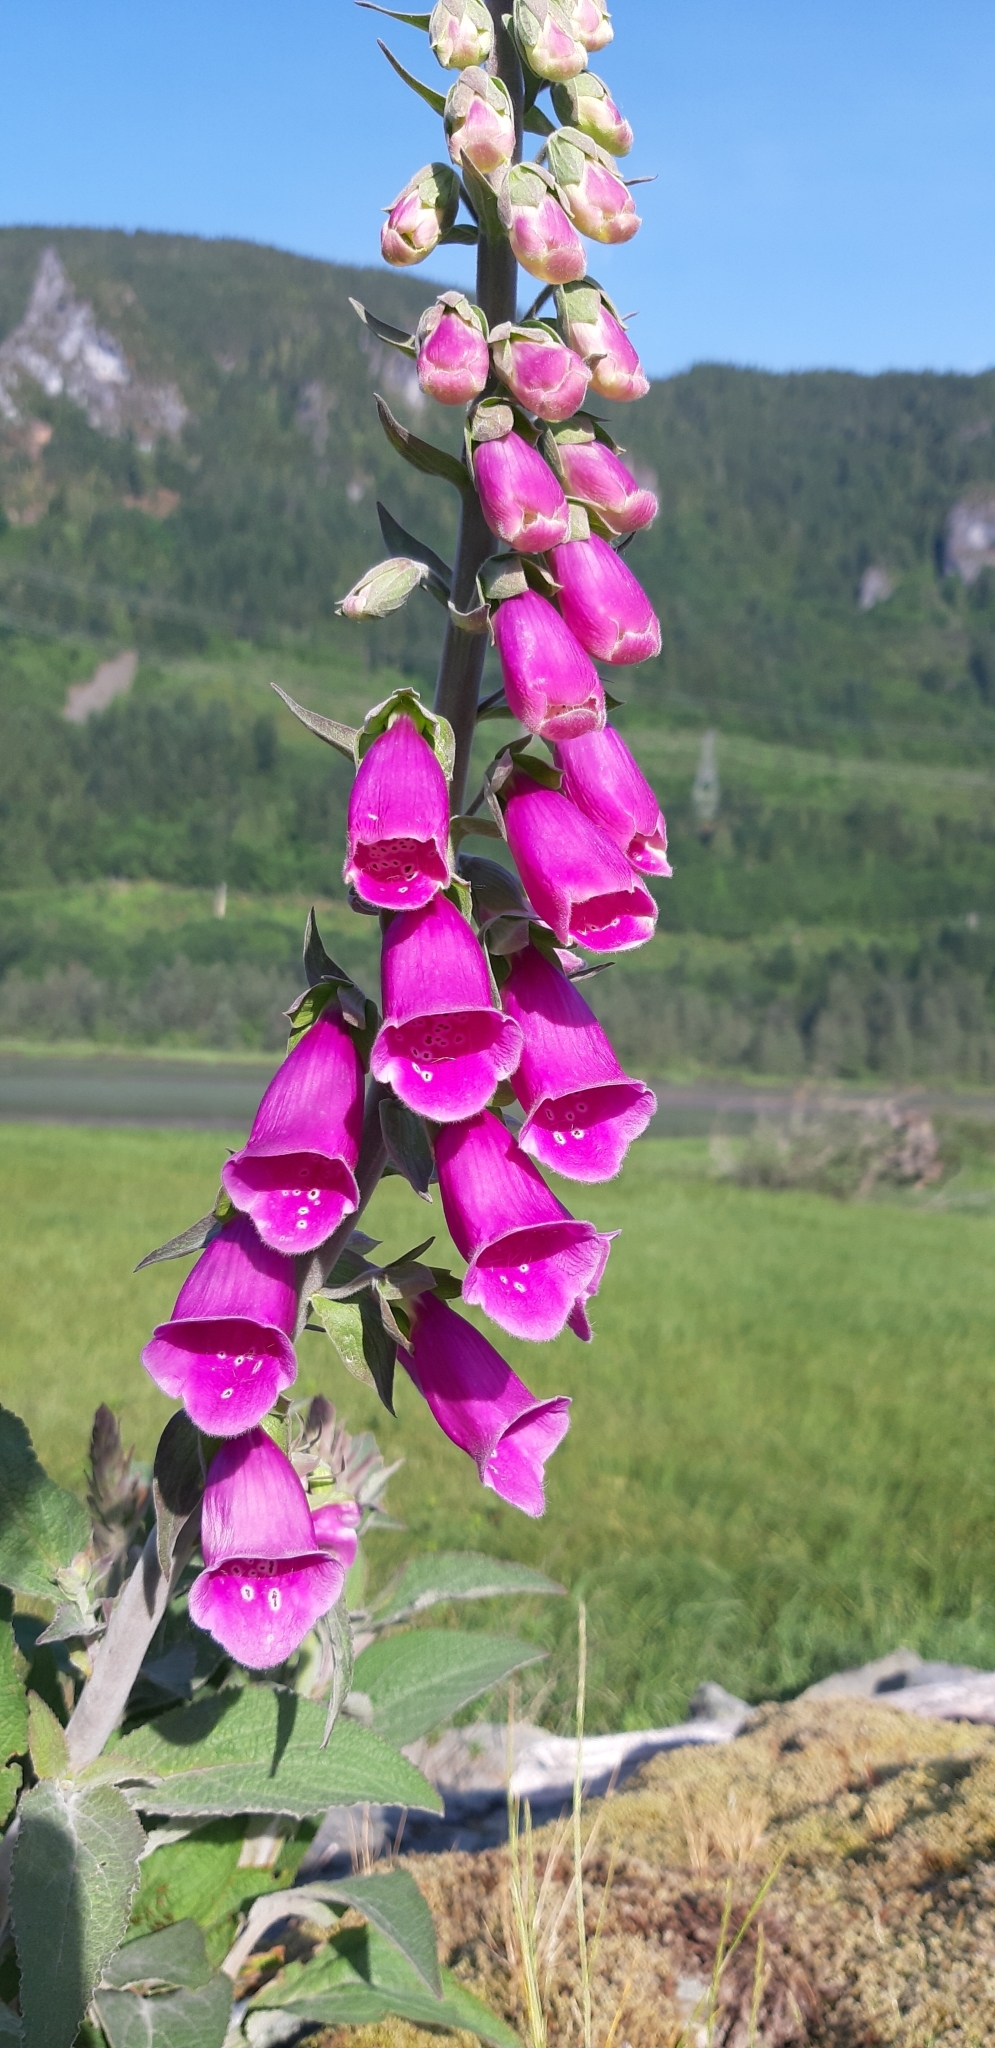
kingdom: Plantae
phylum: Tracheophyta
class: Magnoliopsida
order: Lamiales
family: Plantaginaceae
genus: Digitalis
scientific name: Digitalis purpurea
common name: Foxglove
